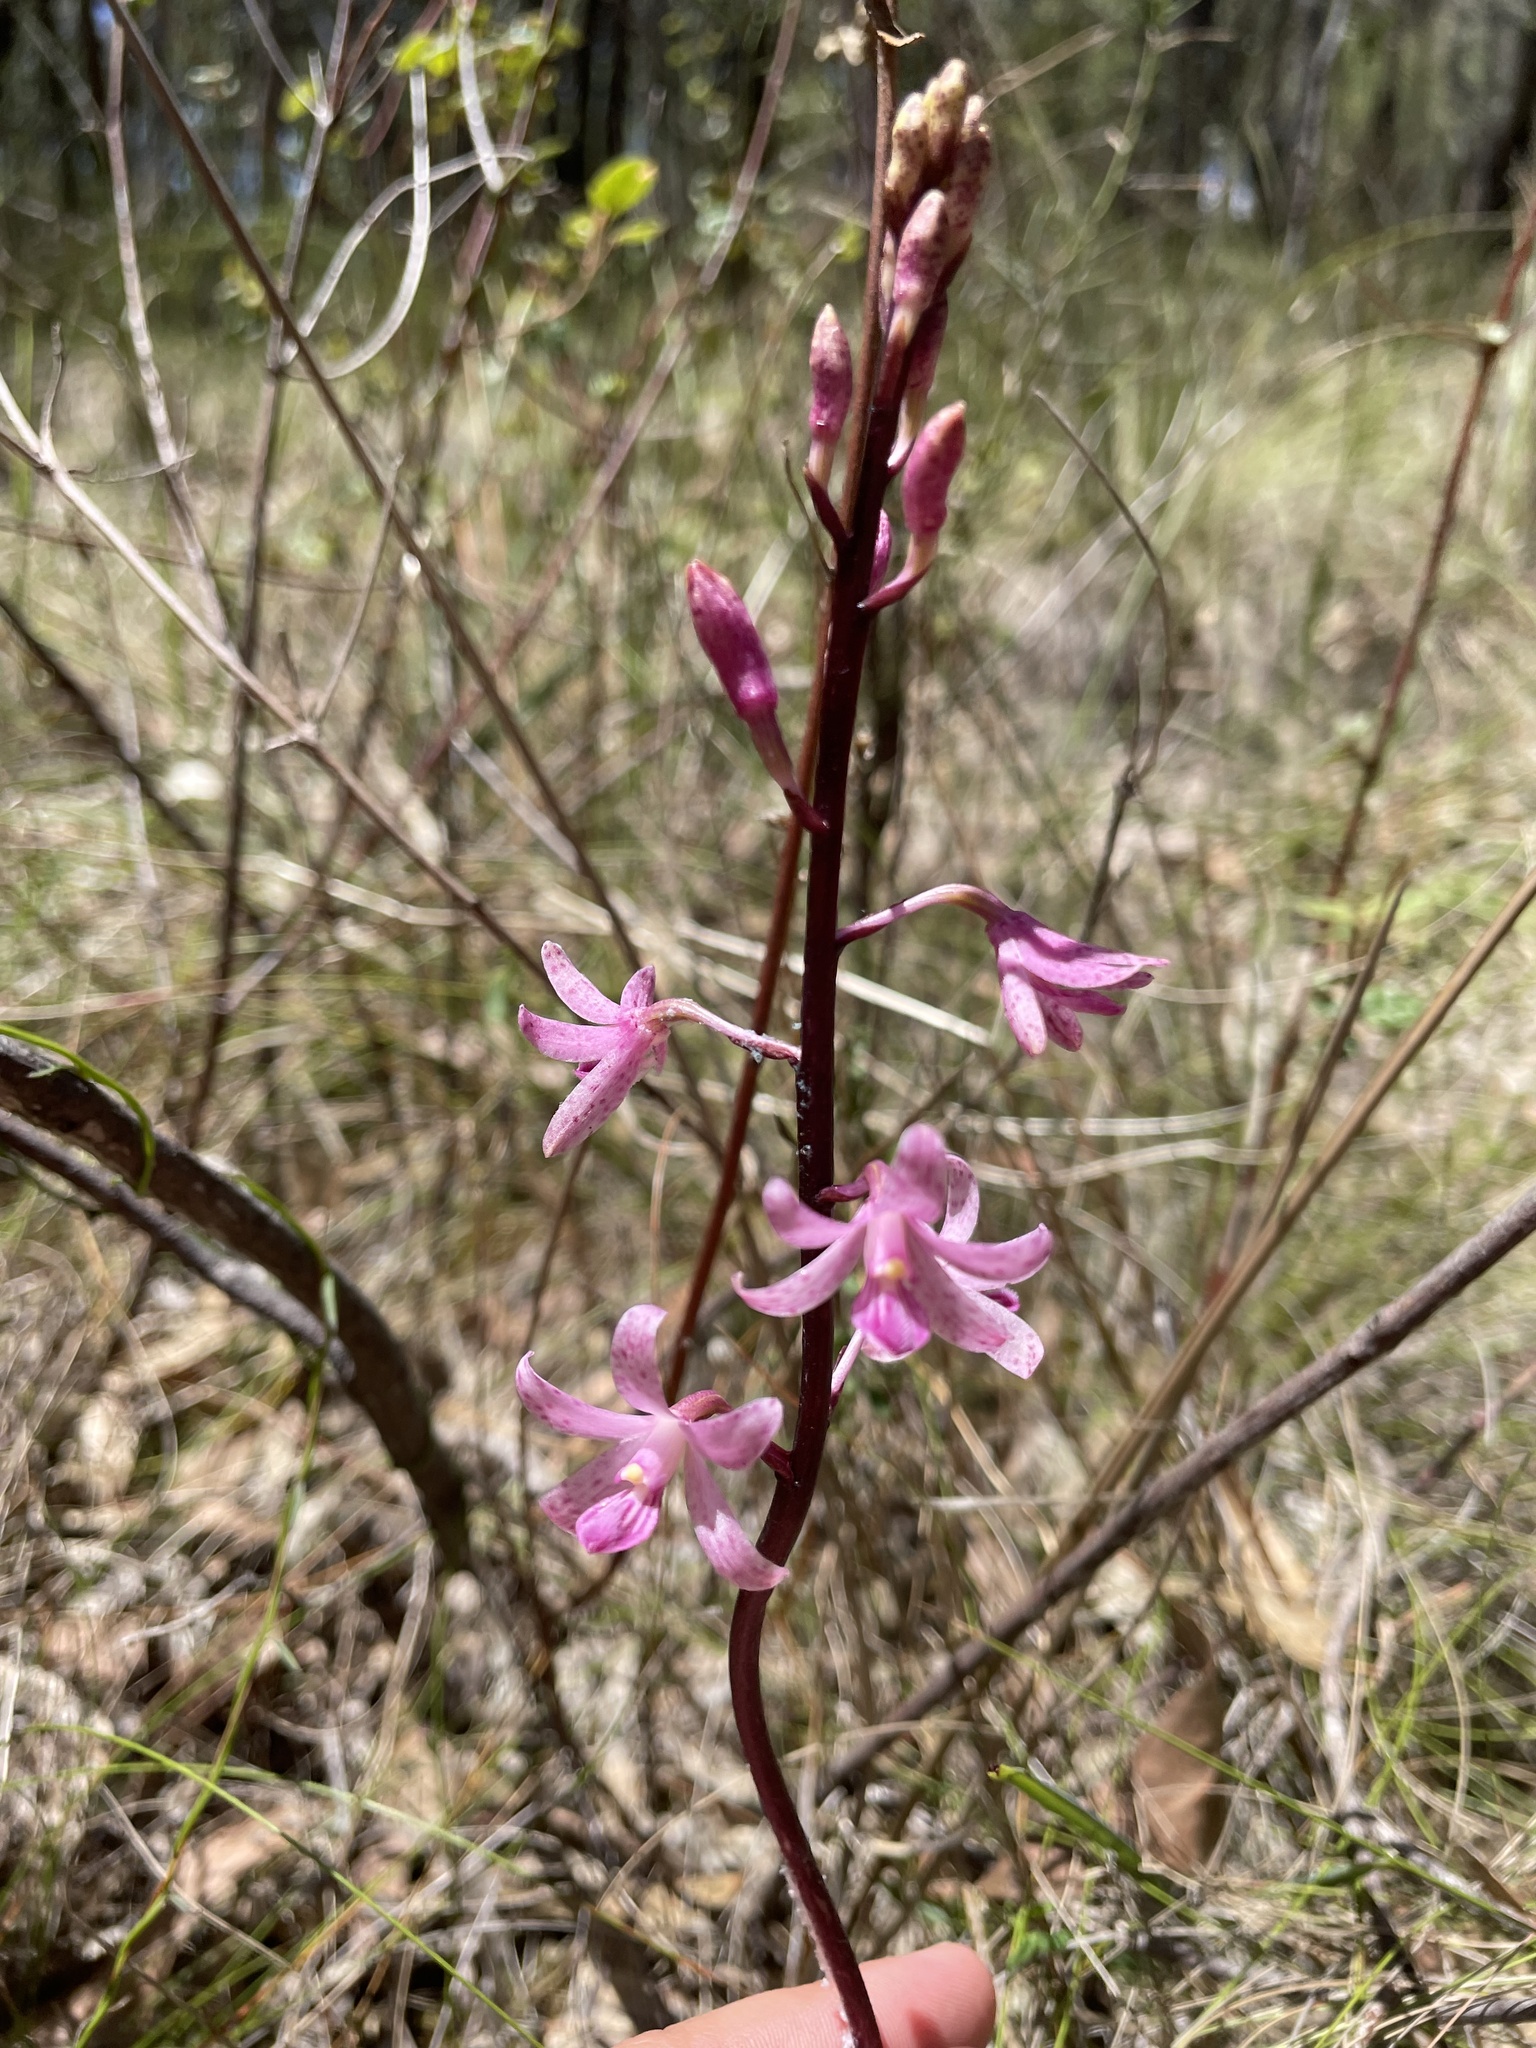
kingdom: Plantae
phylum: Tracheophyta
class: Liliopsida
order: Asparagales
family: Orchidaceae
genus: Dipodium
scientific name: Dipodium roseum
